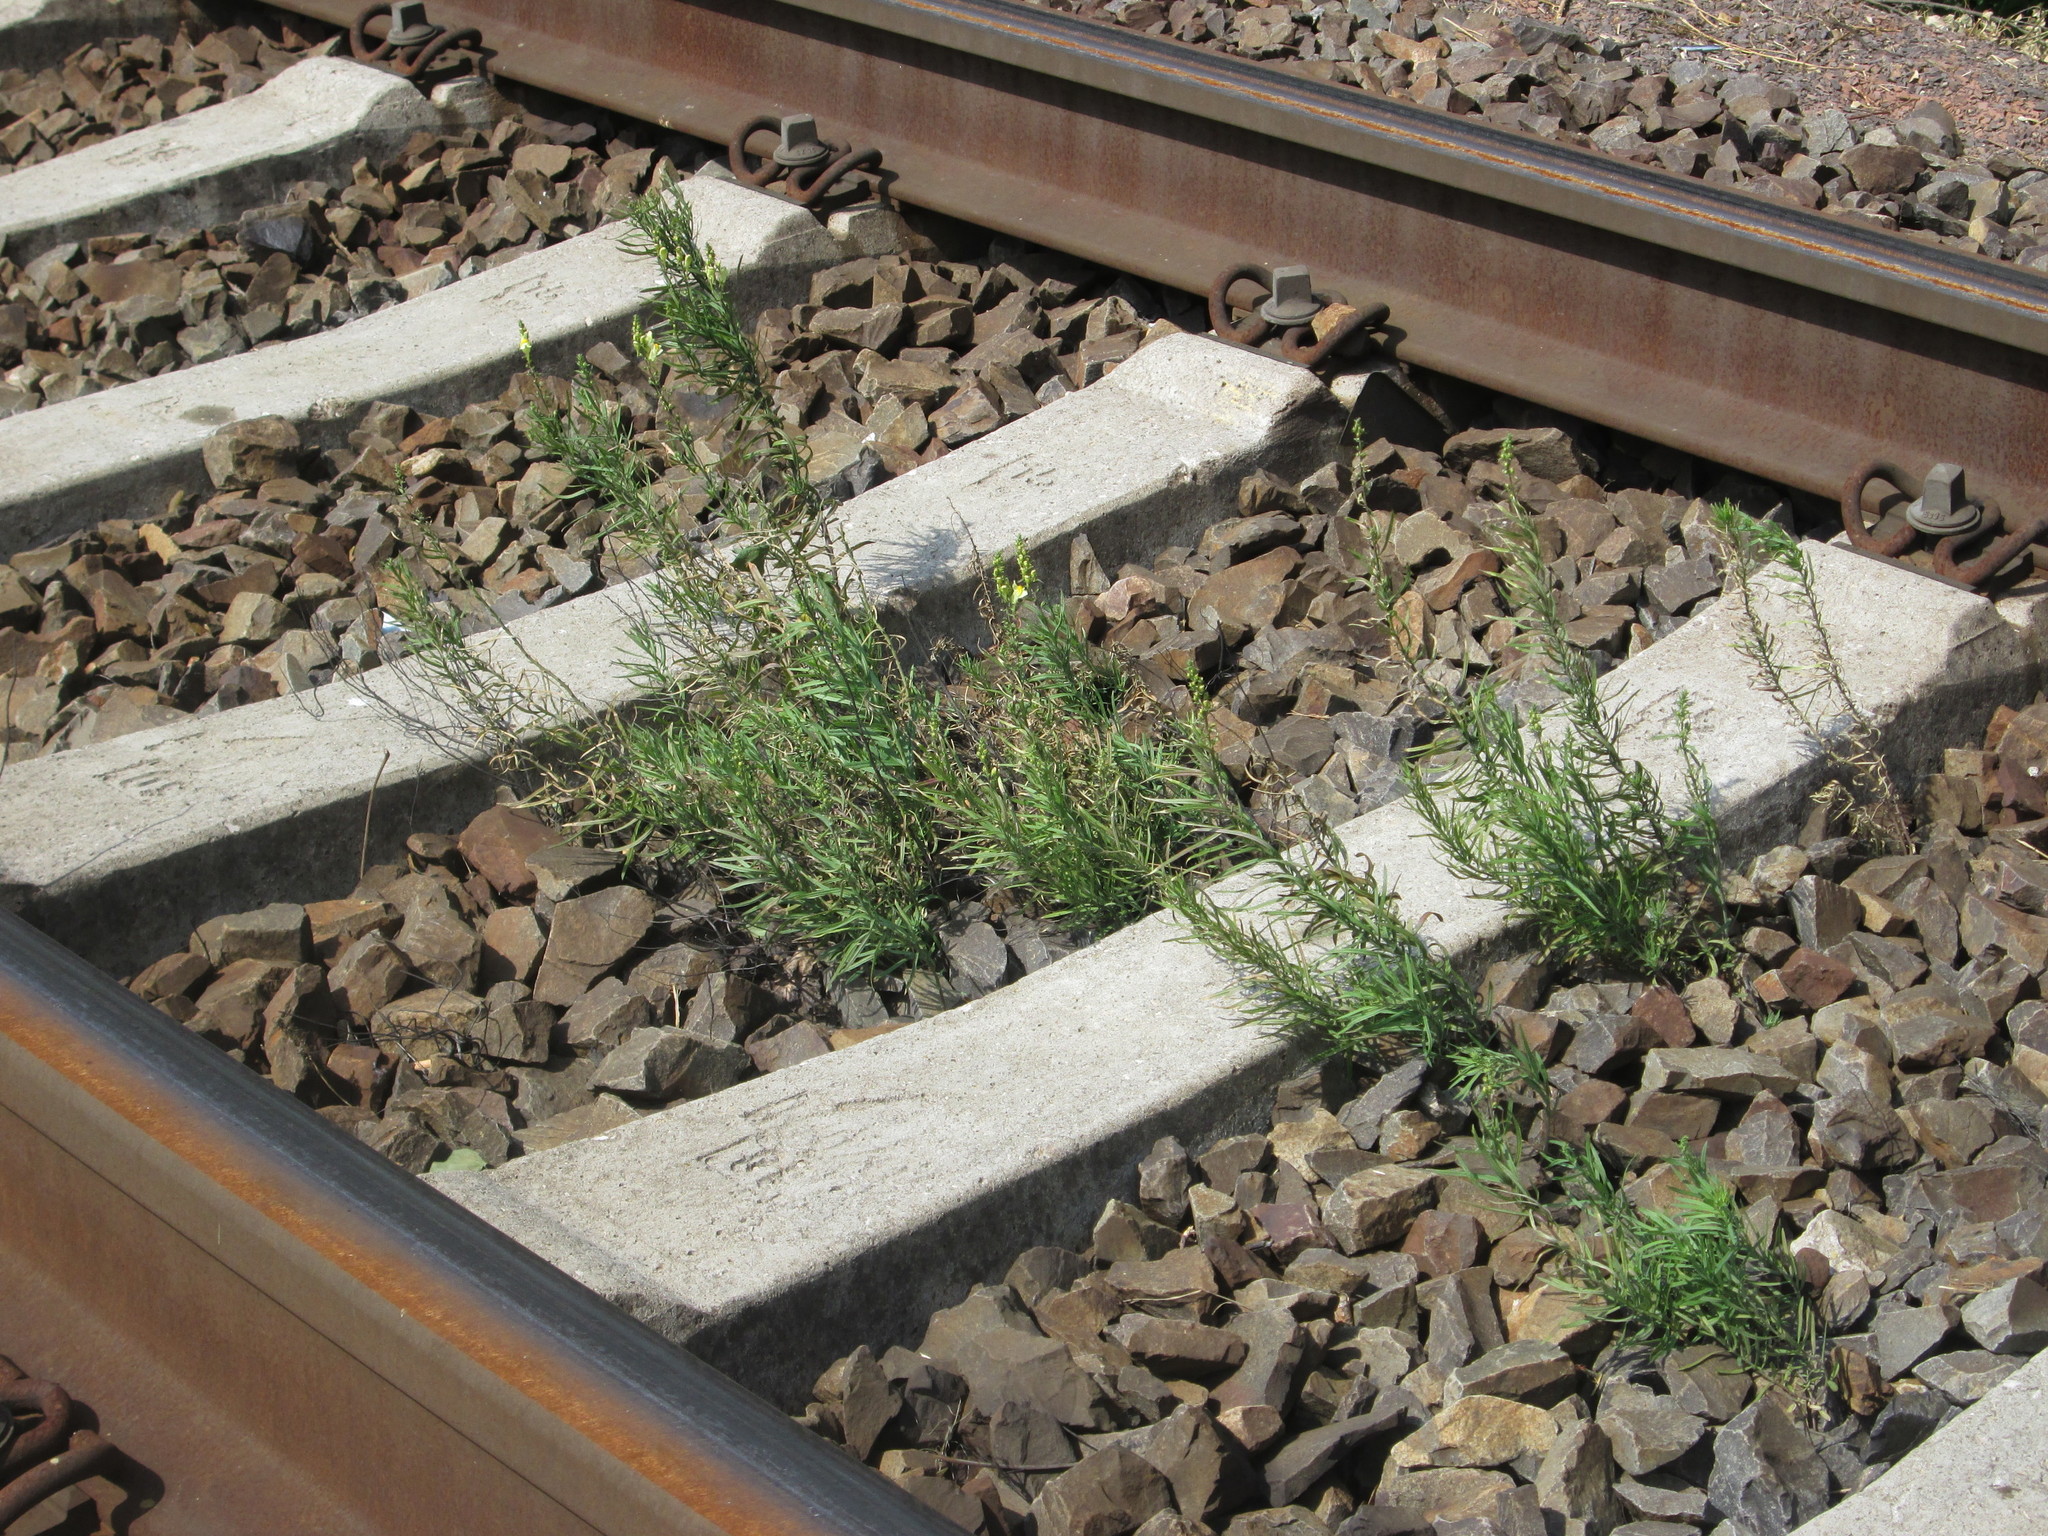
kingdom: Plantae
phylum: Tracheophyta
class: Magnoliopsida
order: Lamiales
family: Plantaginaceae
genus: Linaria
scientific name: Linaria vulgaris
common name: Butter and eggs
